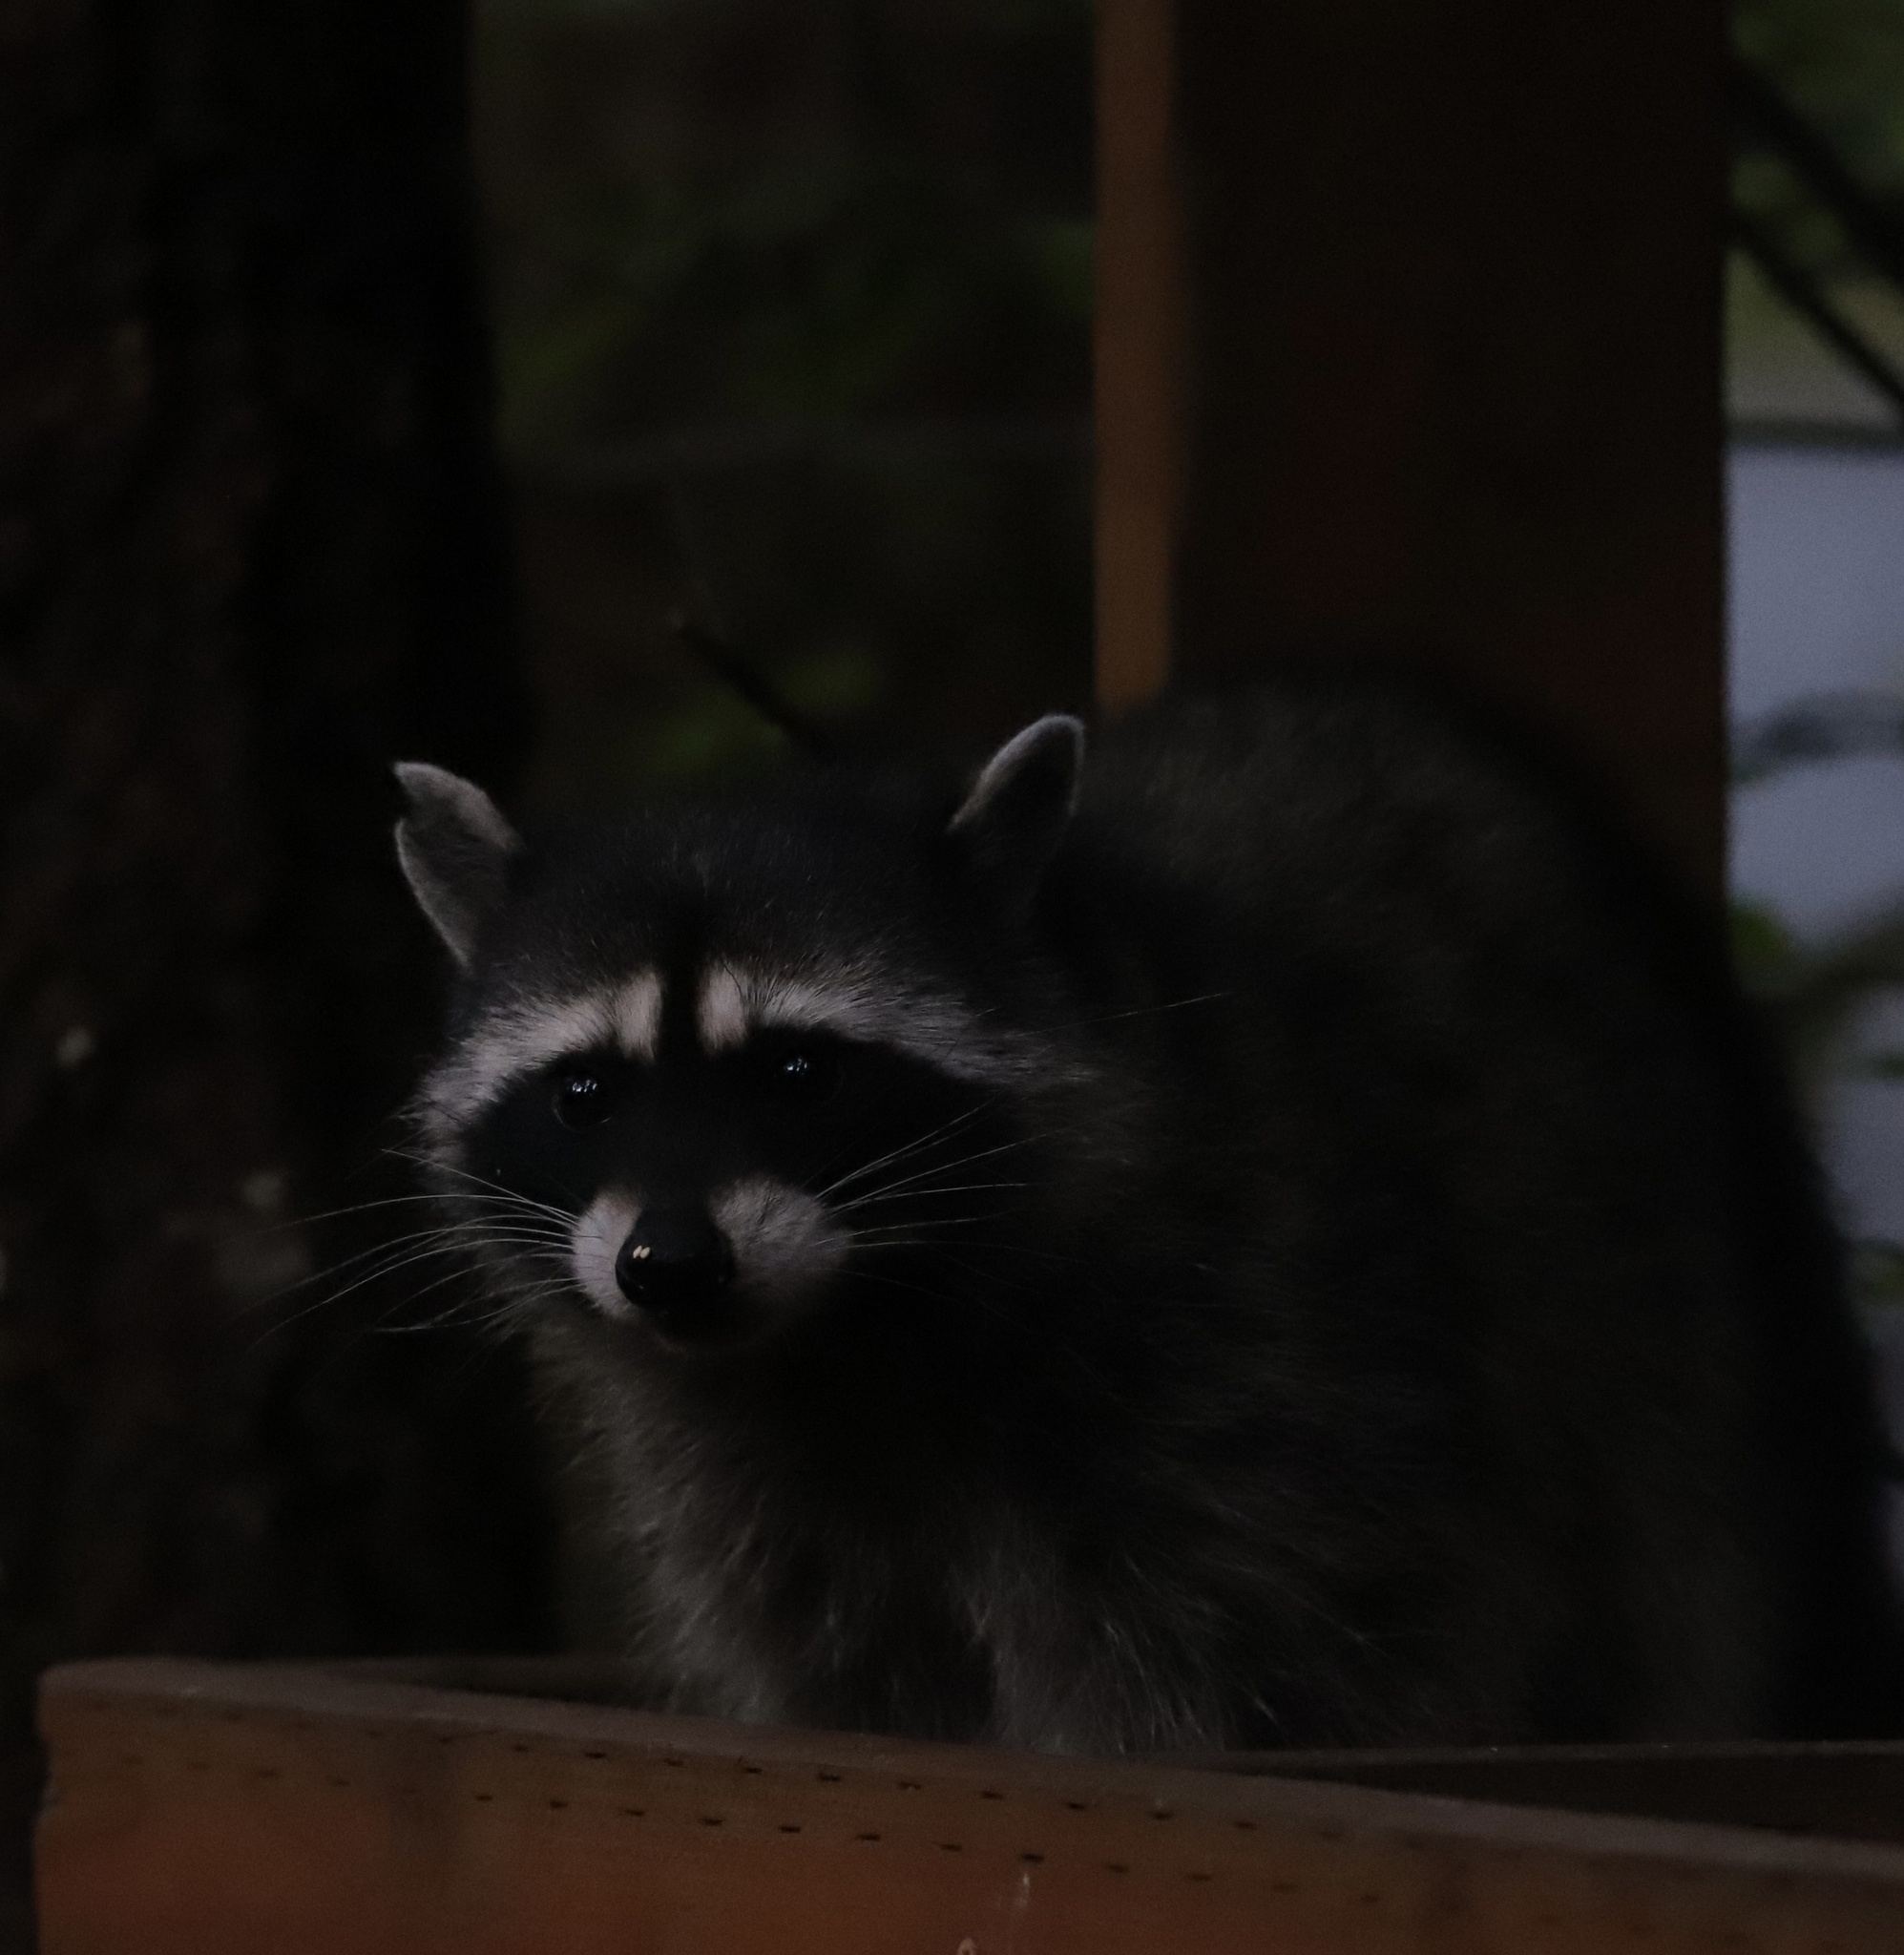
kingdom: Animalia
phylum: Chordata
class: Mammalia
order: Carnivora
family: Procyonidae
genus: Procyon
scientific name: Procyon lotor
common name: Raccoon
